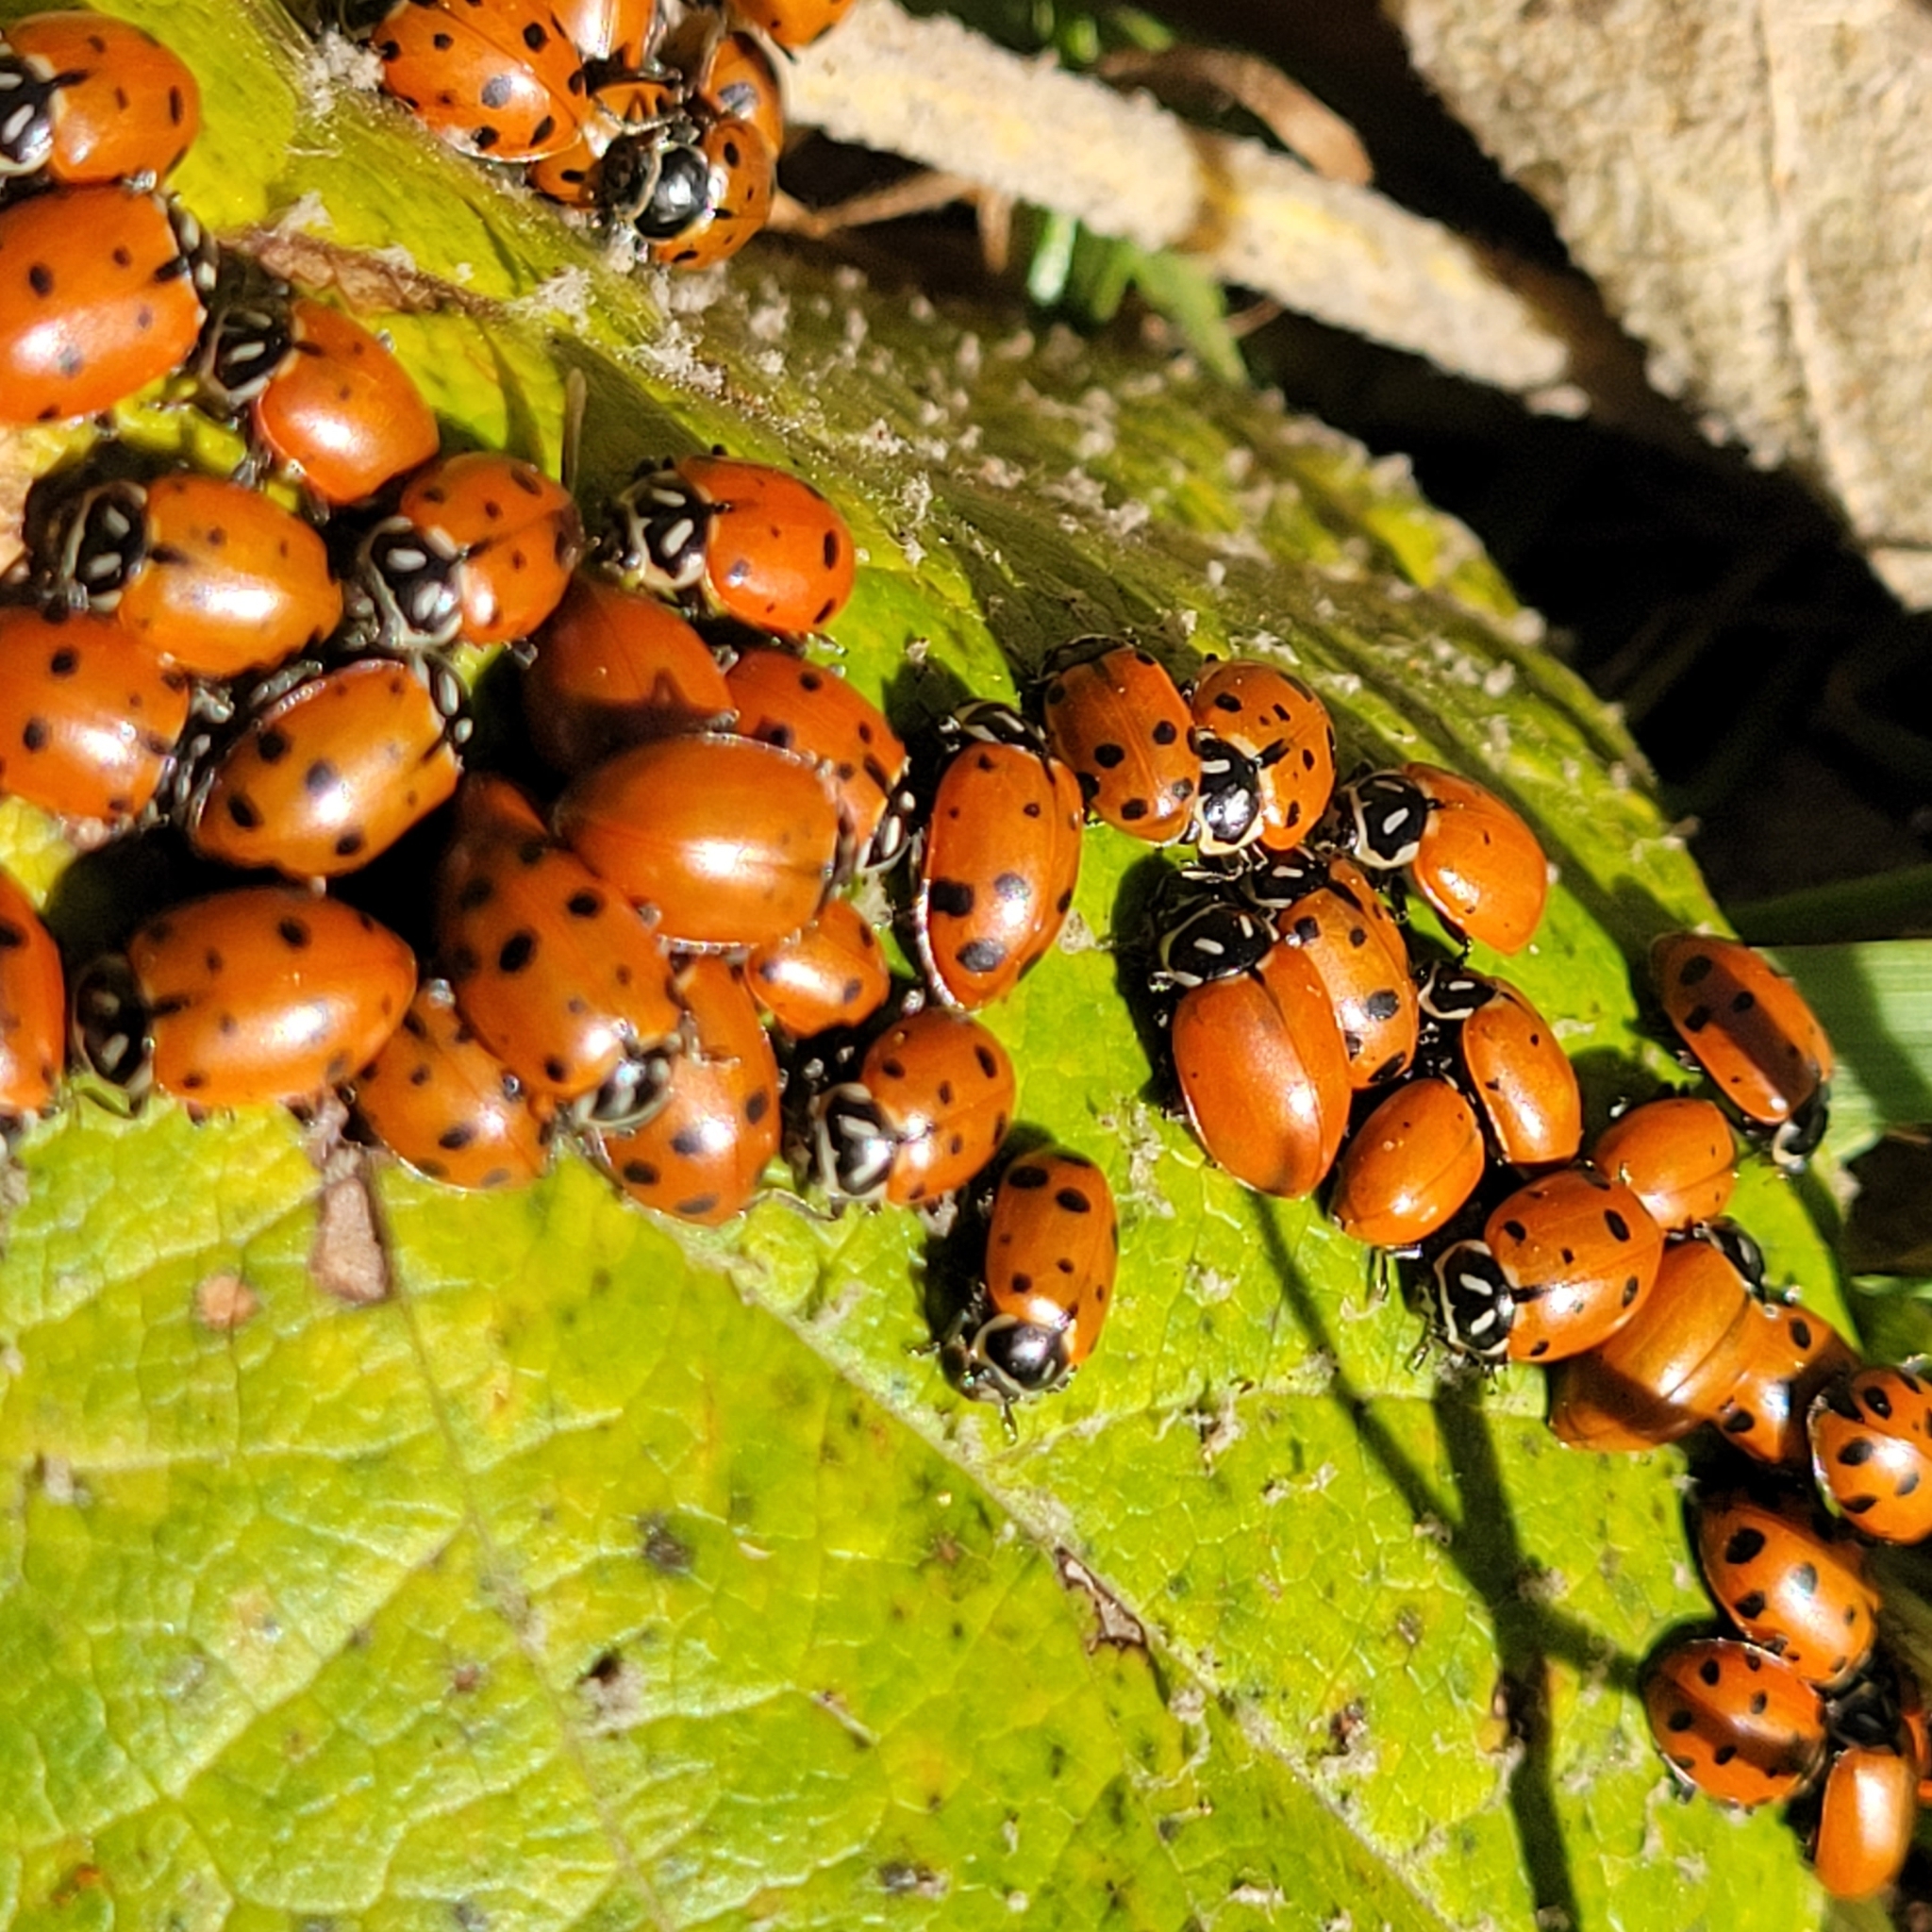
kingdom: Animalia
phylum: Arthropoda
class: Insecta
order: Coleoptera
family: Coccinellidae
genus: Hippodamia
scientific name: Hippodamia convergens
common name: Convergent lady beetle
